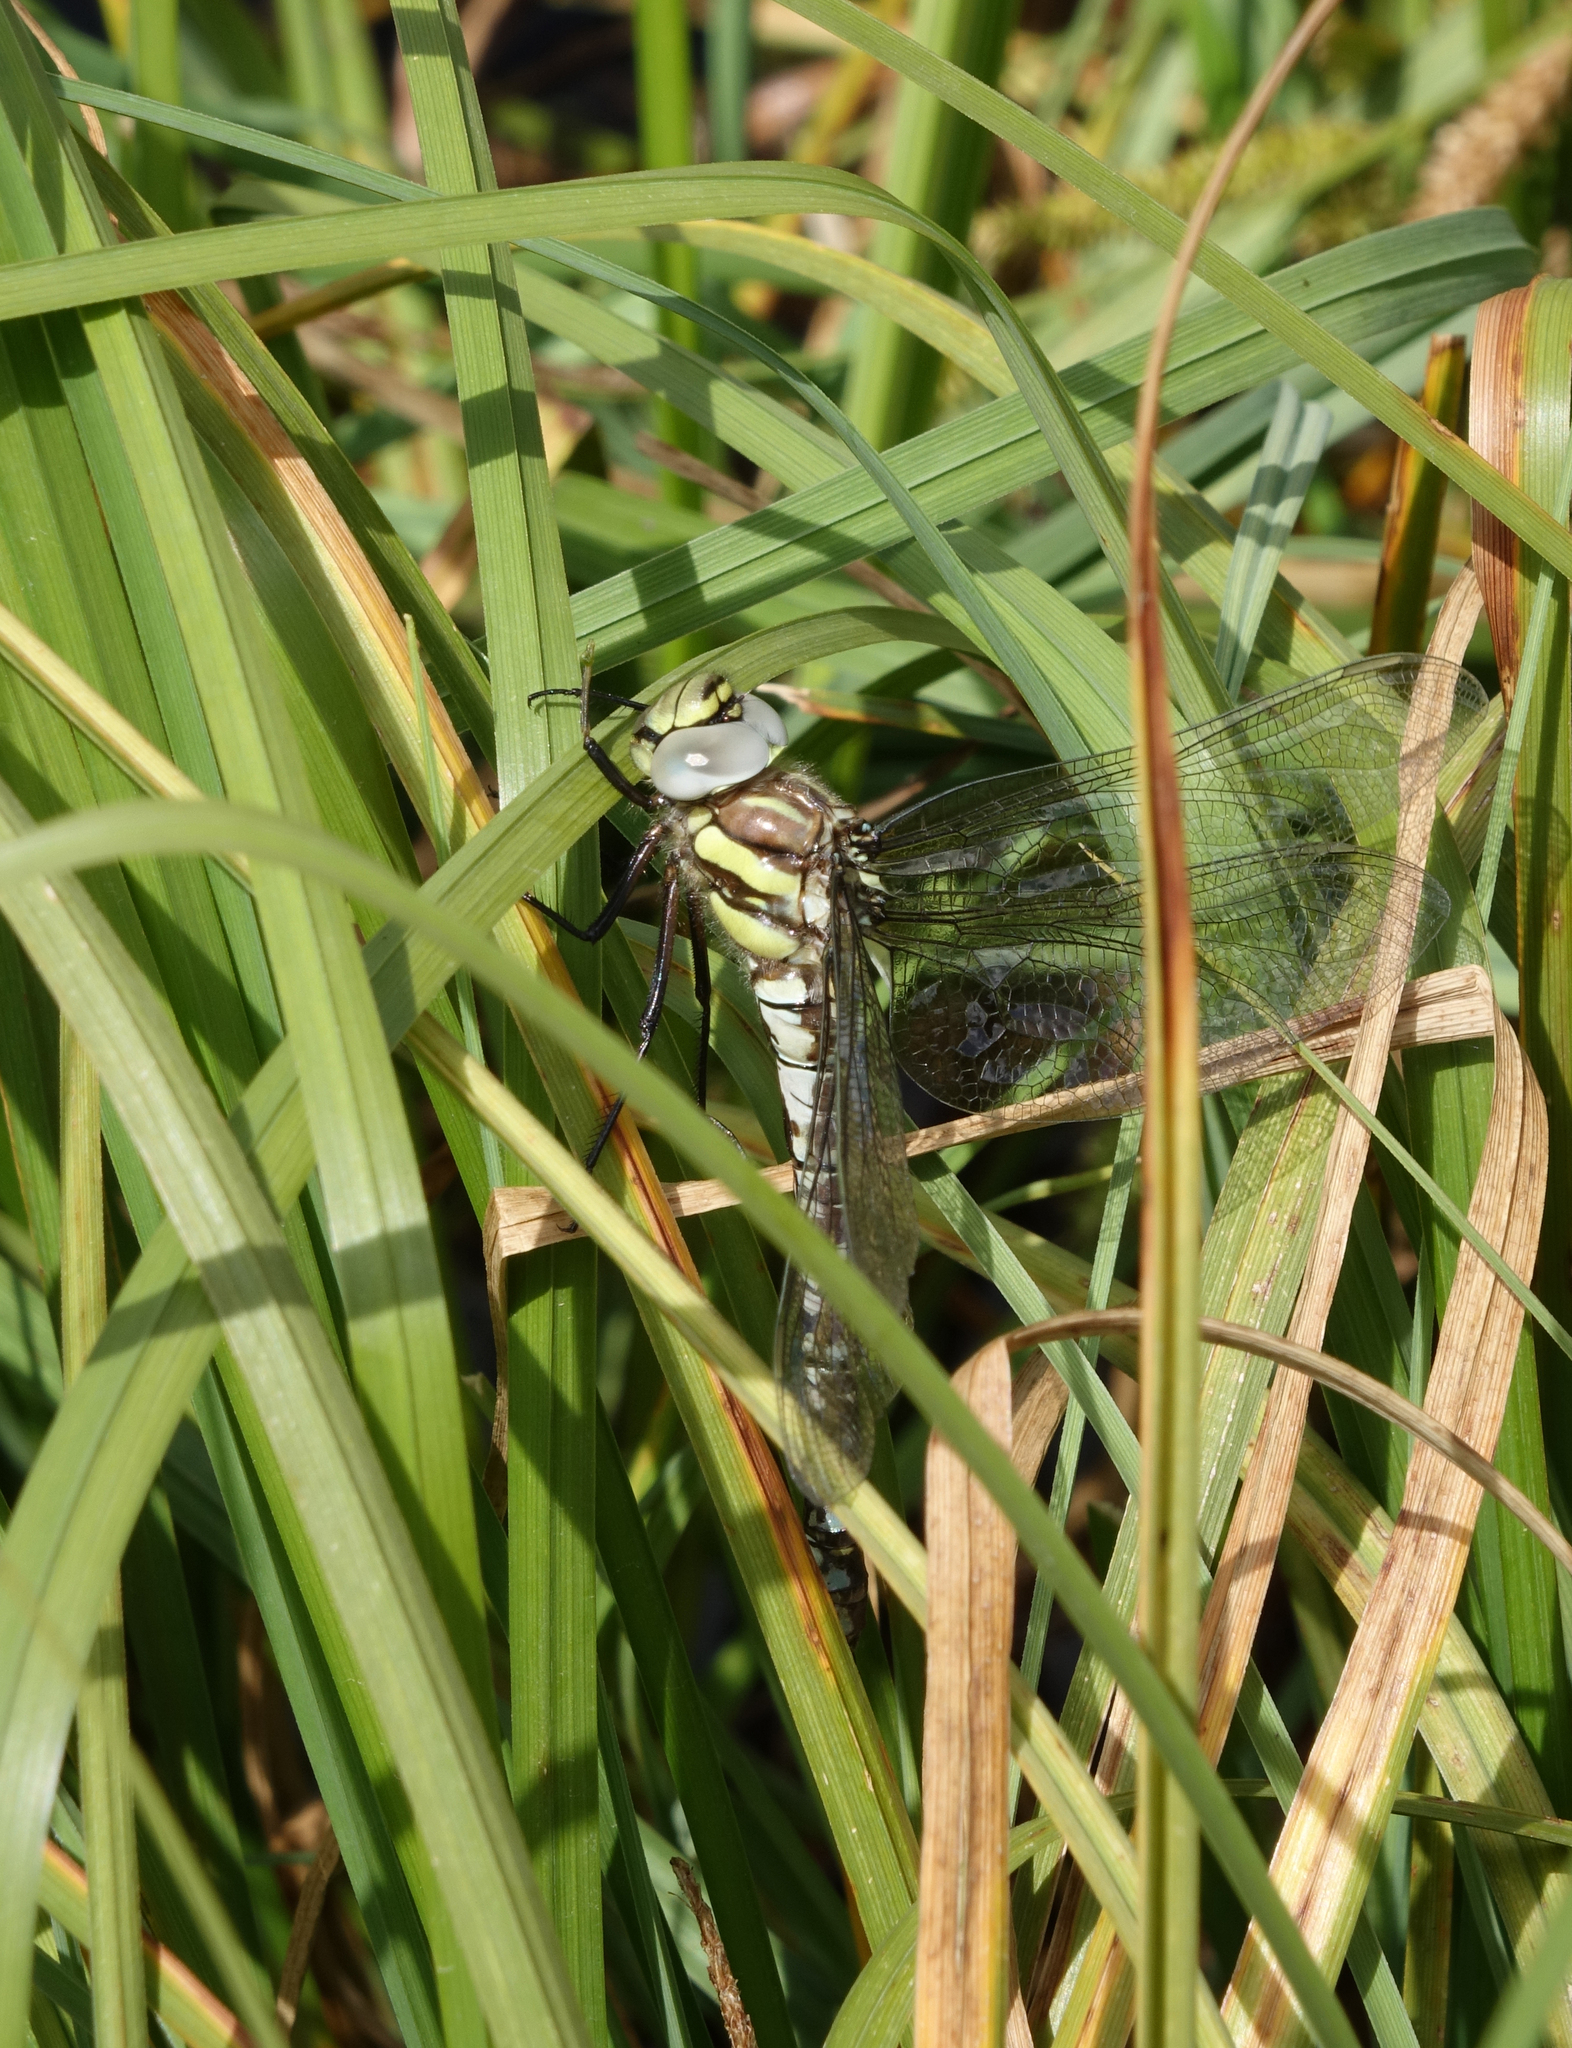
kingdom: Animalia
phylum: Arthropoda
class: Insecta
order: Odonata
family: Aeshnidae
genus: Aeshna
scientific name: Aeshna juncea
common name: Moorland hawker
